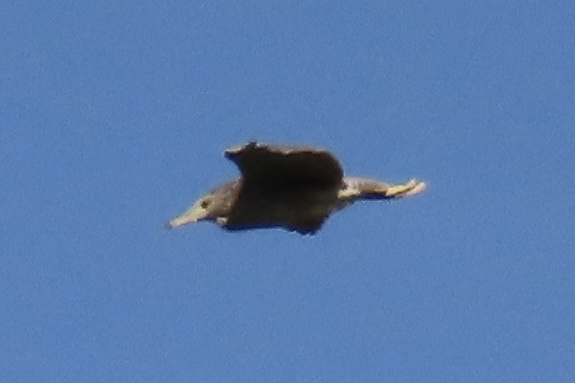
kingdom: Animalia
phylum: Chordata
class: Aves
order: Pelecaniformes
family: Ardeidae
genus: Nycticorax
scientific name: Nycticorax nycticorax
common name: Black-crowned night heron
